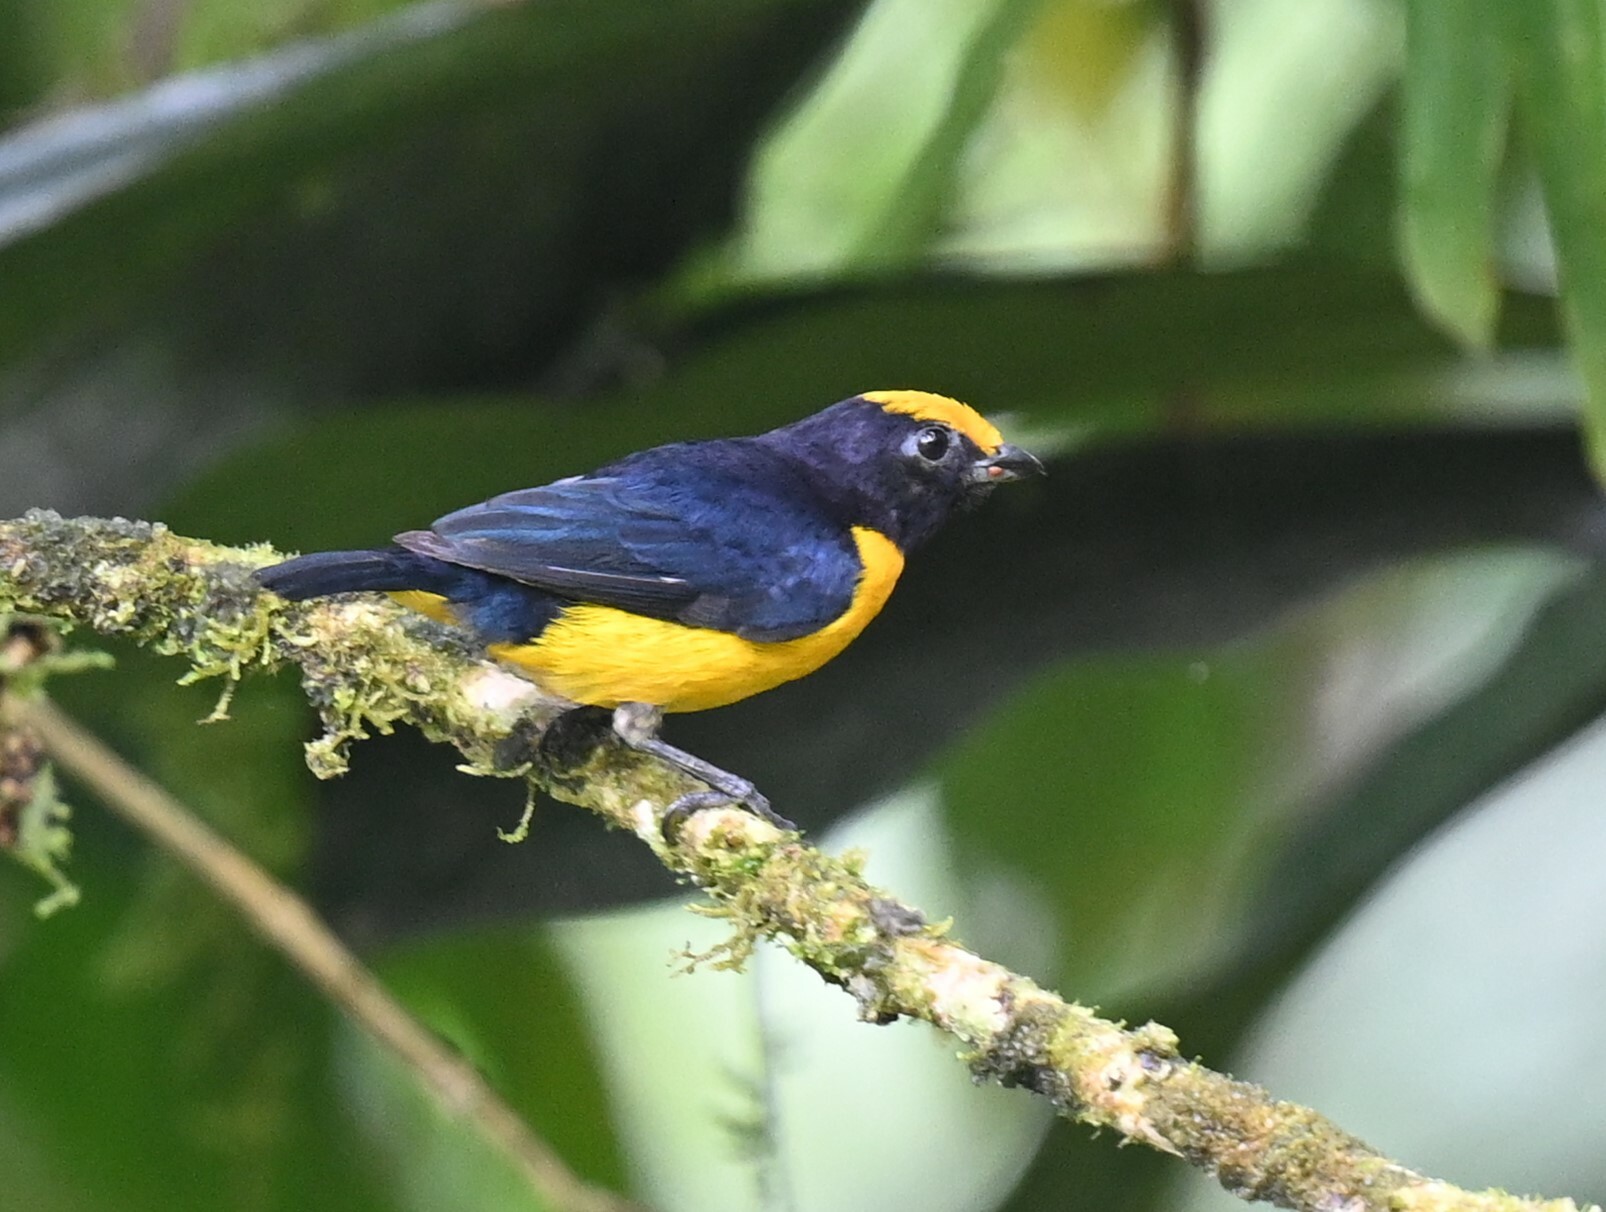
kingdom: Animalia
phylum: Chordata
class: Aves
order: Passeriformes
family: Fringillidae
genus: Euphonia
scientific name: Euphonia xanthogaster
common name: Orange-bellied euphonia
